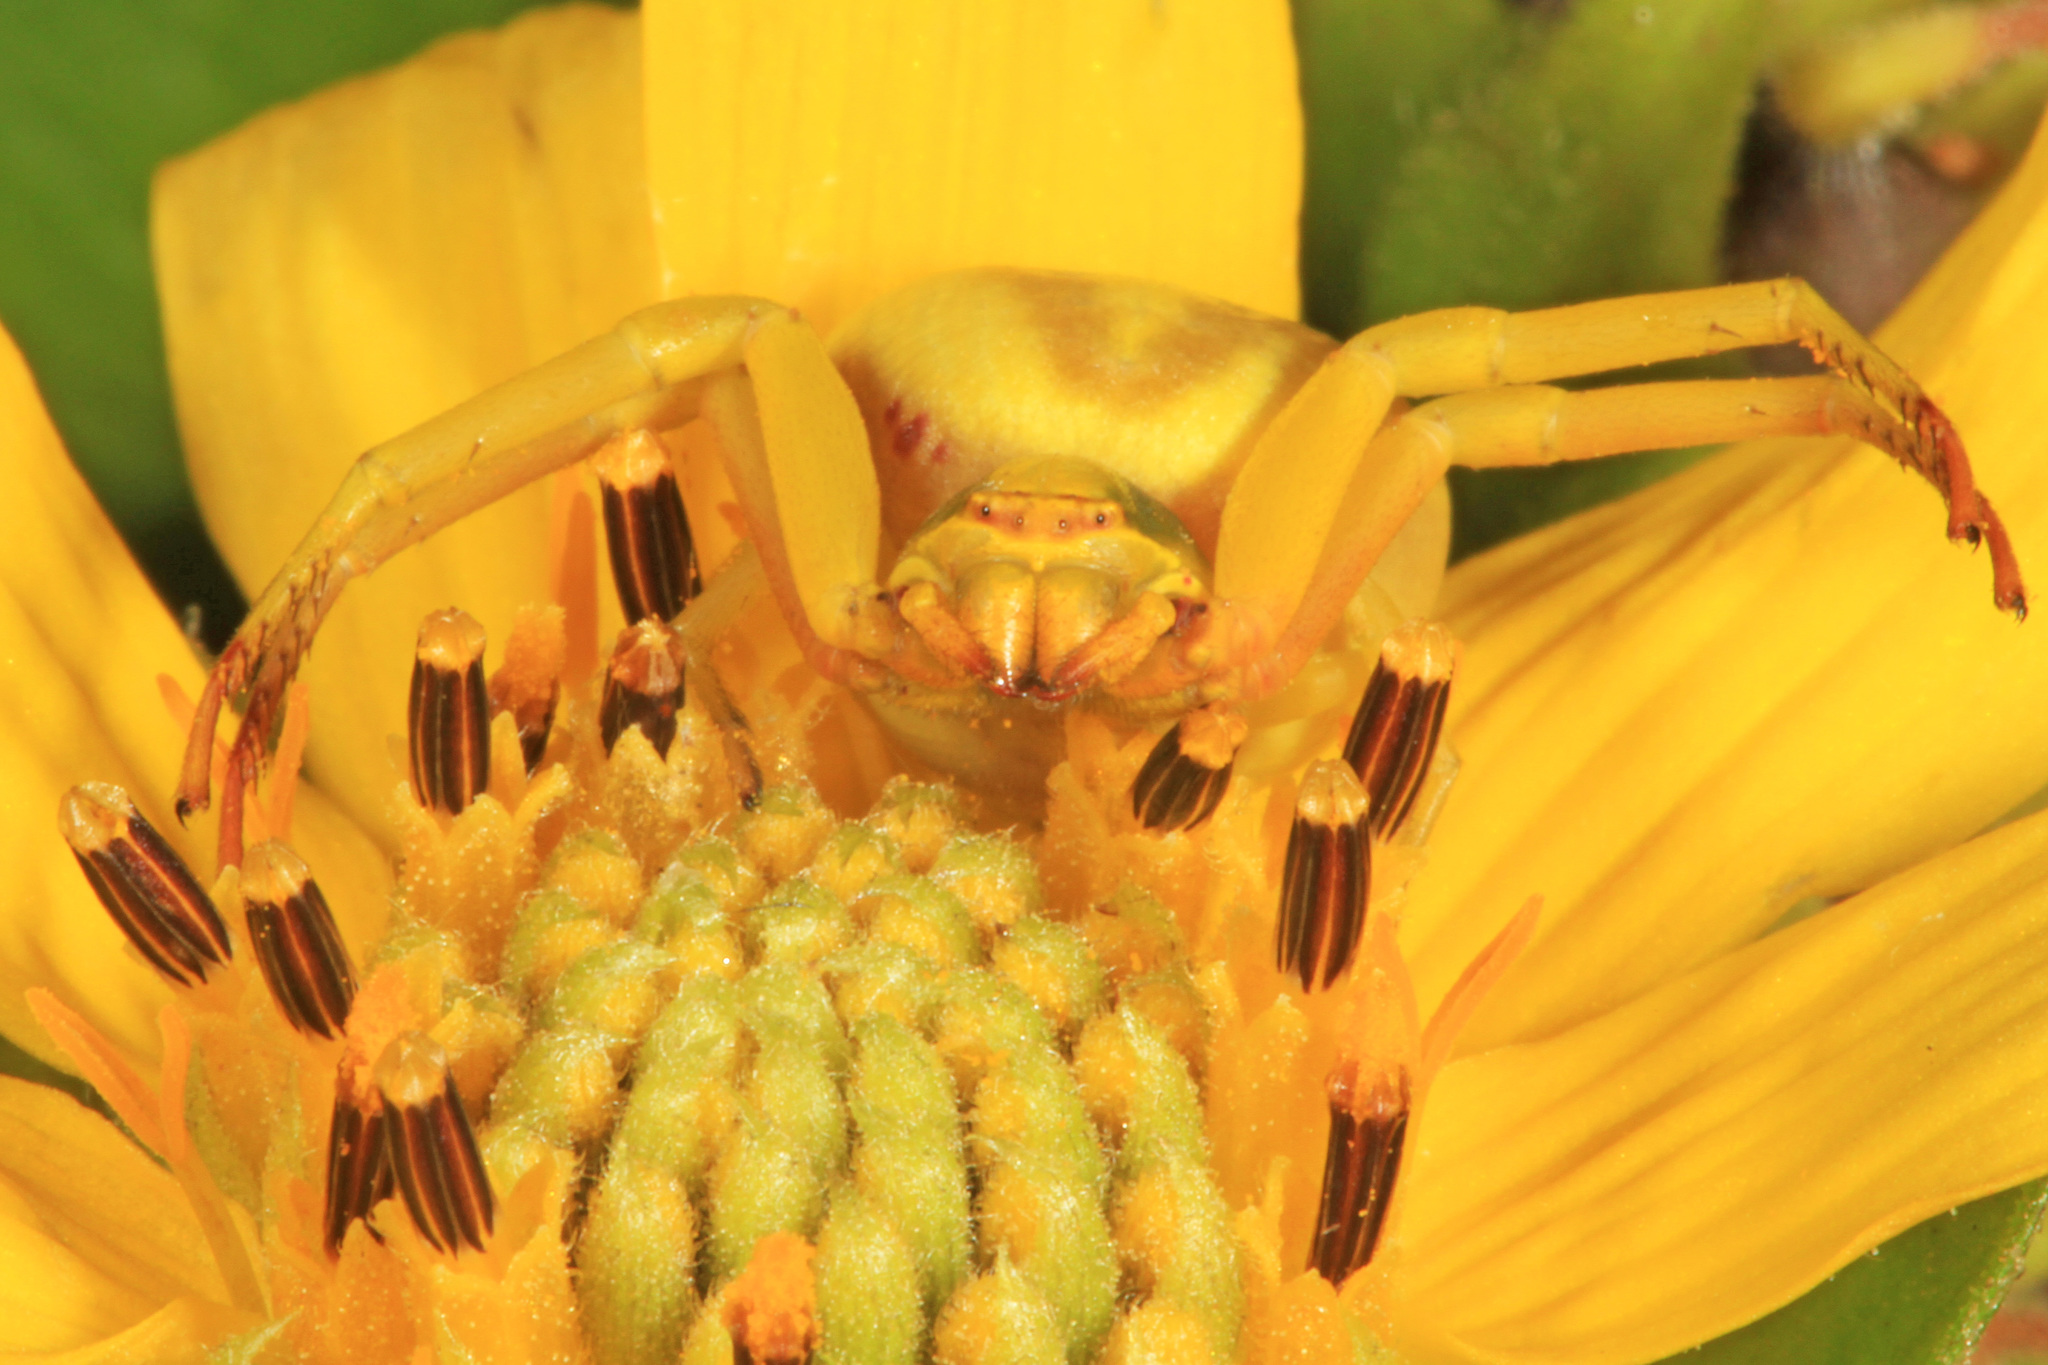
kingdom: Animalia
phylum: Arthropoda
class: Arachnida
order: Araneae
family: Thomisidae
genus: Misumenoides
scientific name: Misumenoides formosipes
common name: White-banded crab spider
